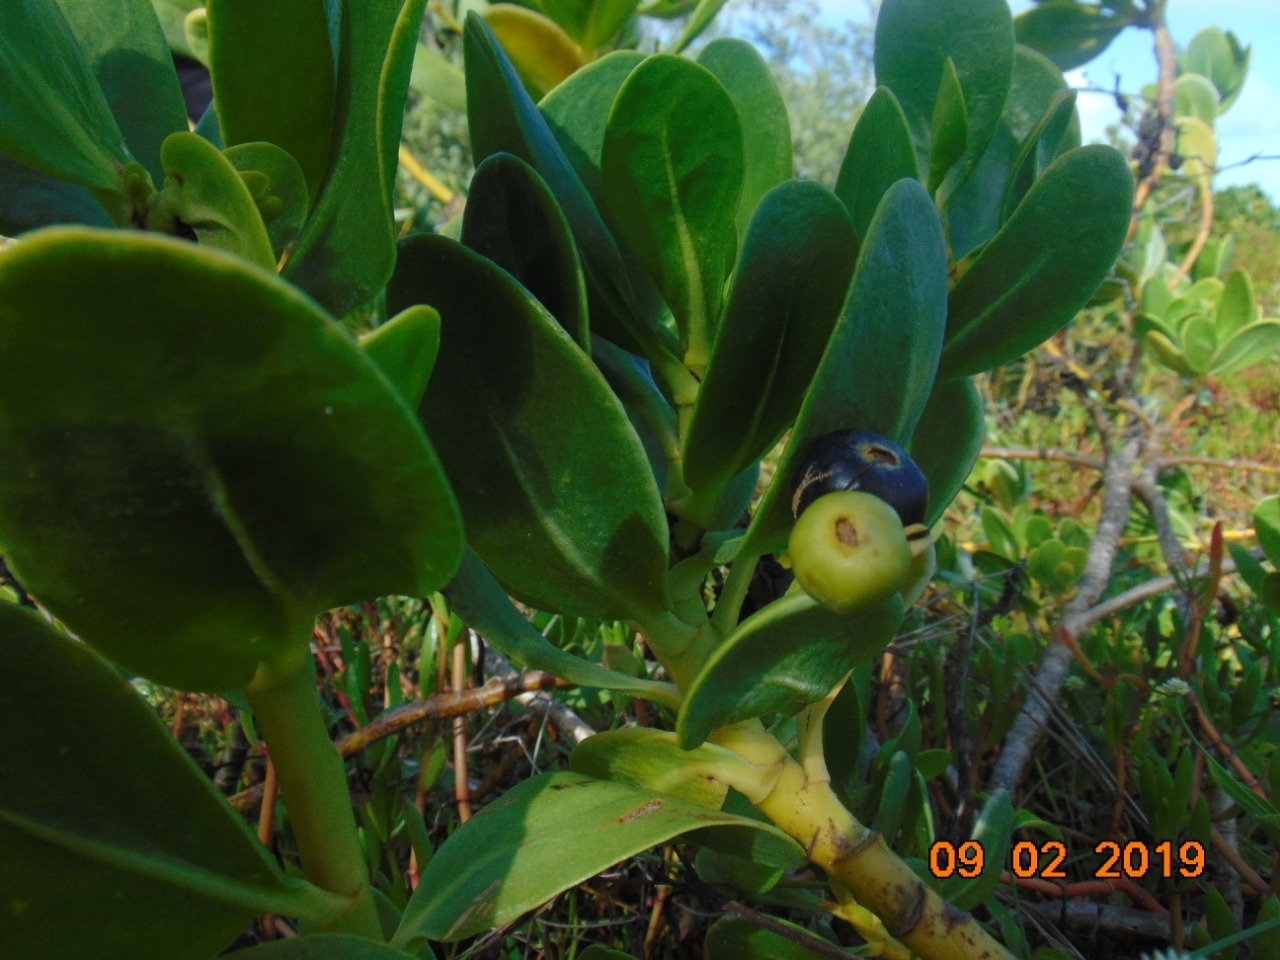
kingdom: Plantae
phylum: Tracheophyta
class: Magnoliopsida
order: Asterales
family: Goodeniaceae
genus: Scaevola
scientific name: Scaevola plumieri
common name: Gull feed
